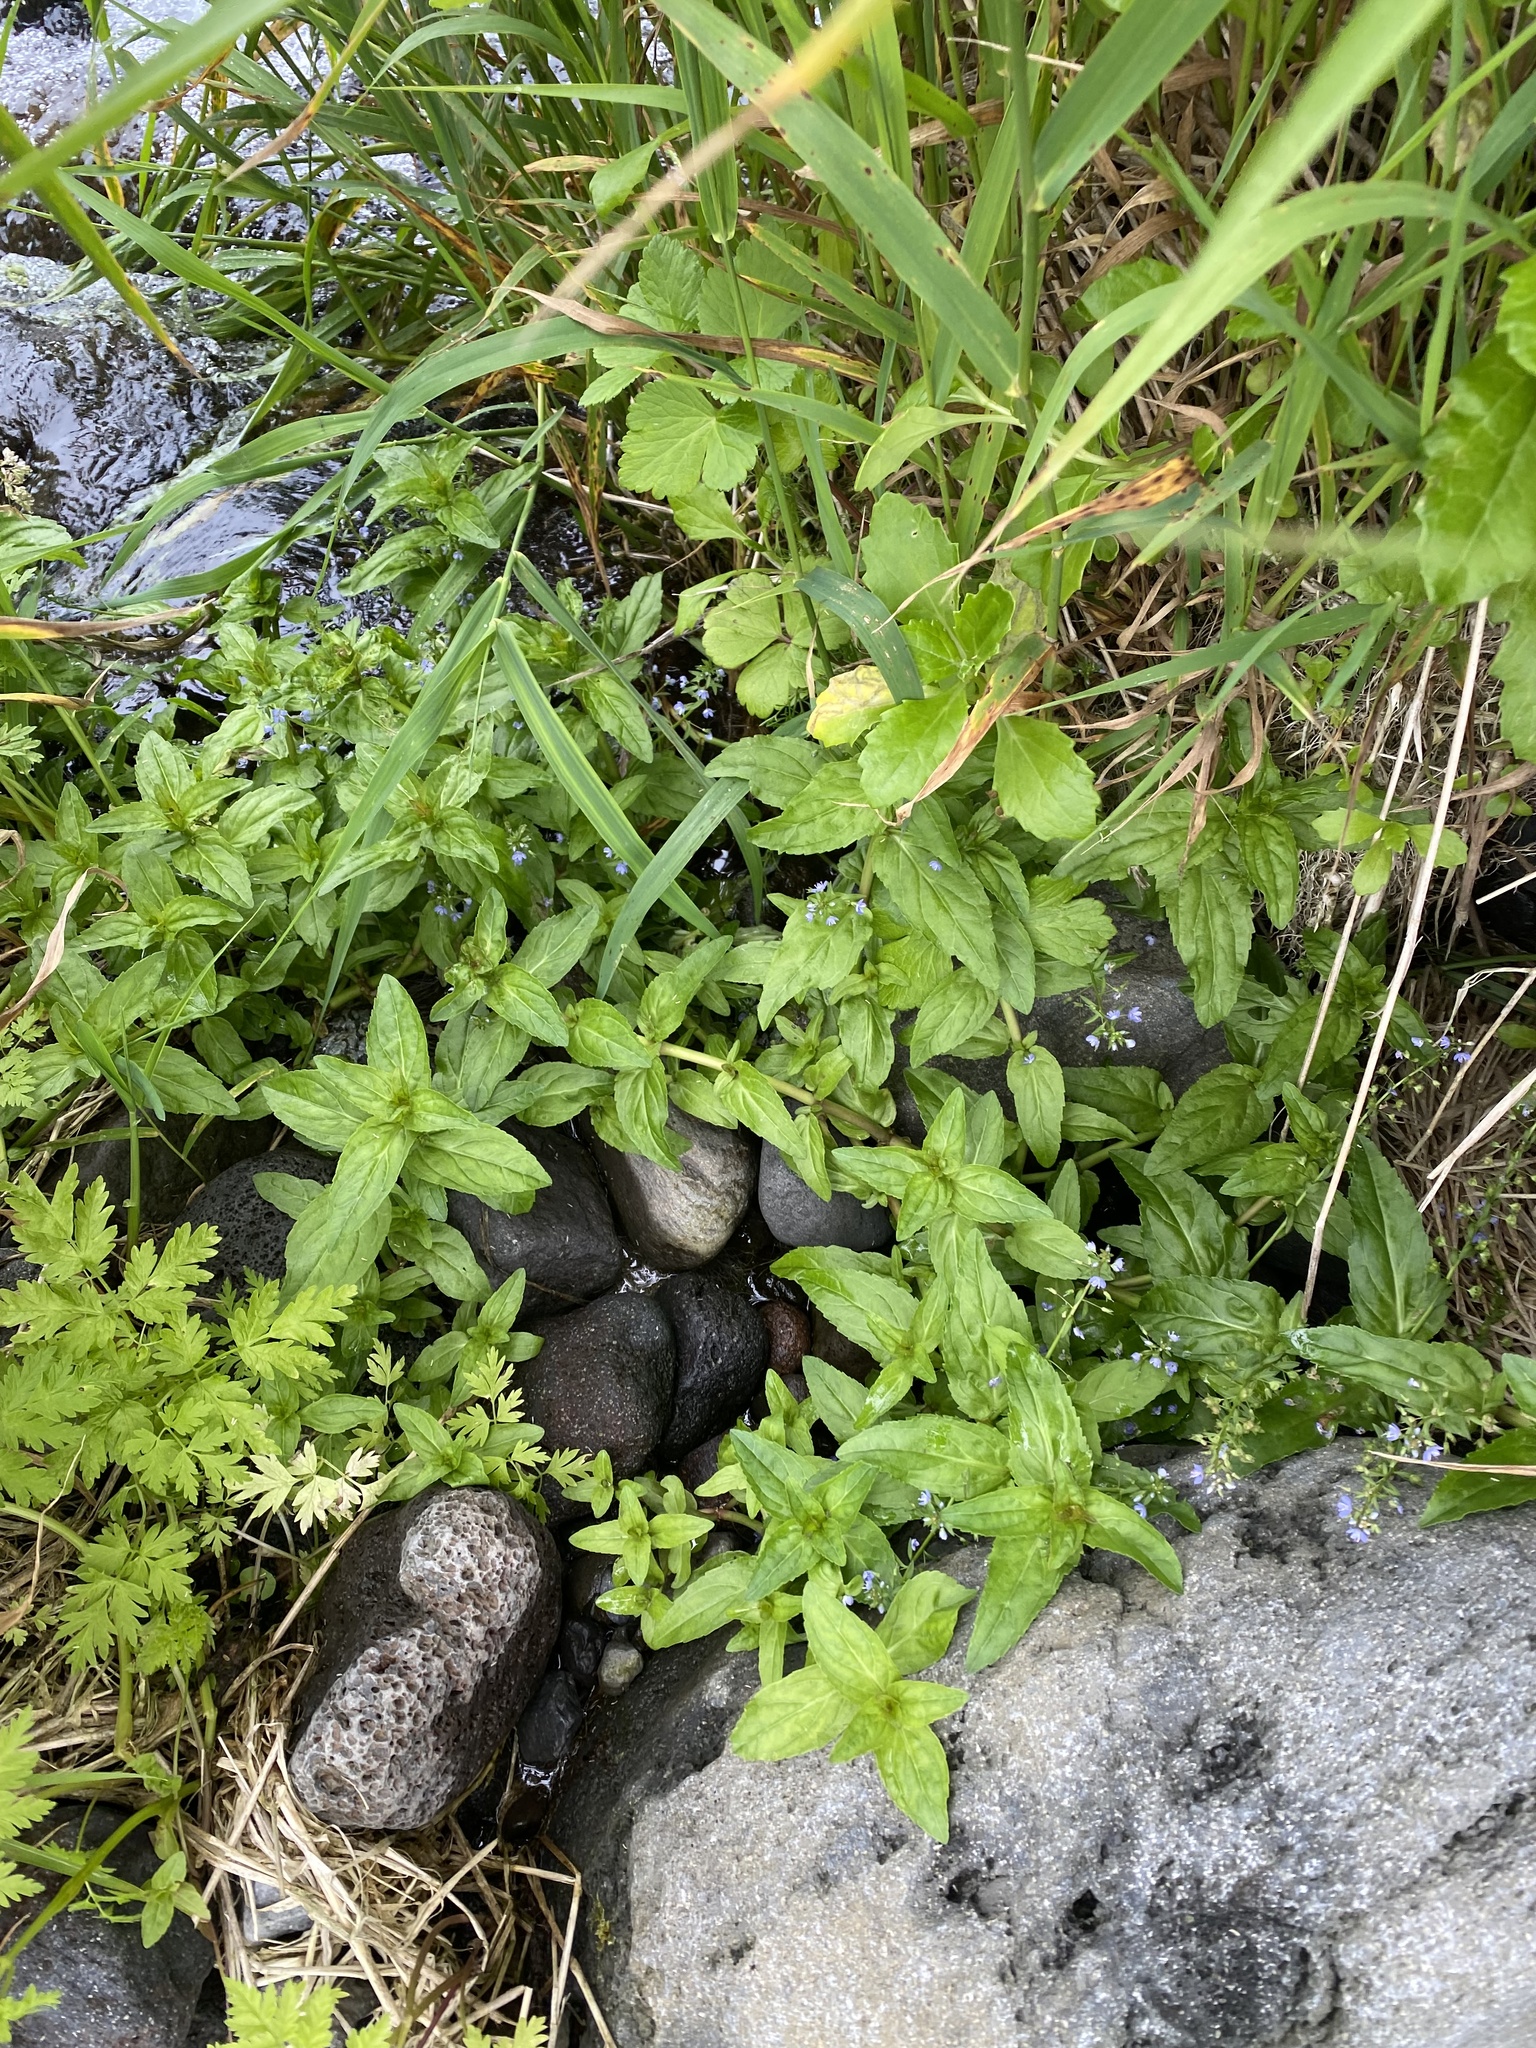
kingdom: Plantae
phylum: Tracheophyta
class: Magnoliopsida
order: Lamiales
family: Plantaginaceae
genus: Veronica
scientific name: Veronica americana
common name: American brooklime
